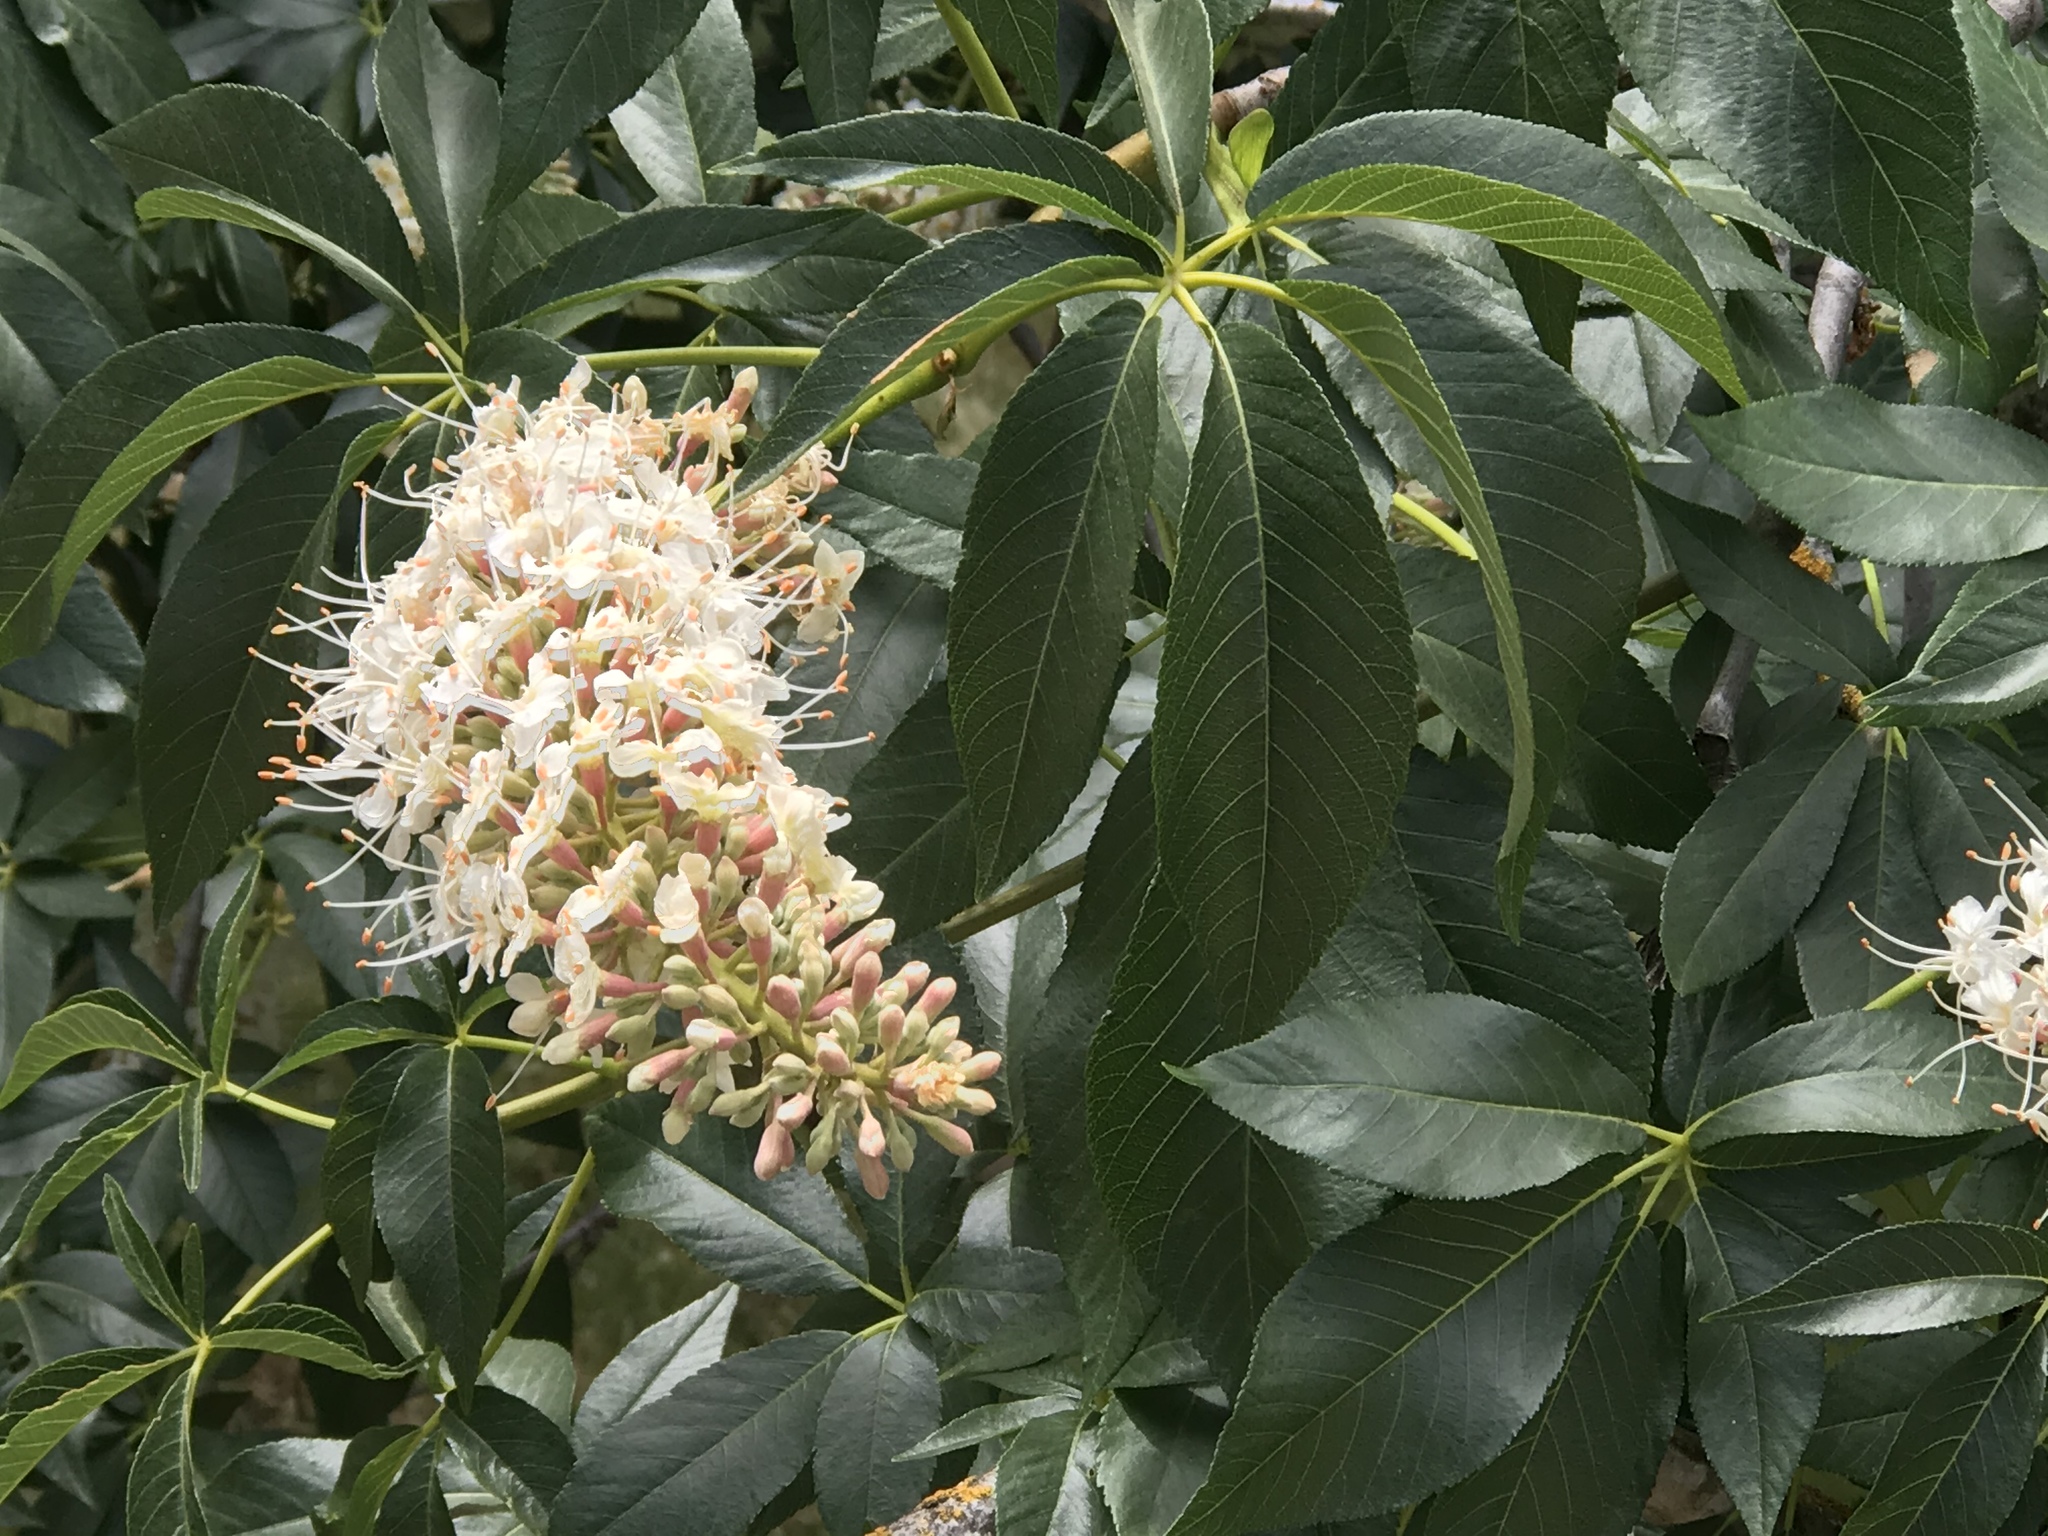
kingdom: Plantae
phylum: Tracheophyta
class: Magnoliopsida
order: Sapindales
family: Sapindaceae
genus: Aesculus
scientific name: Aesculus californica
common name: California buckeye
